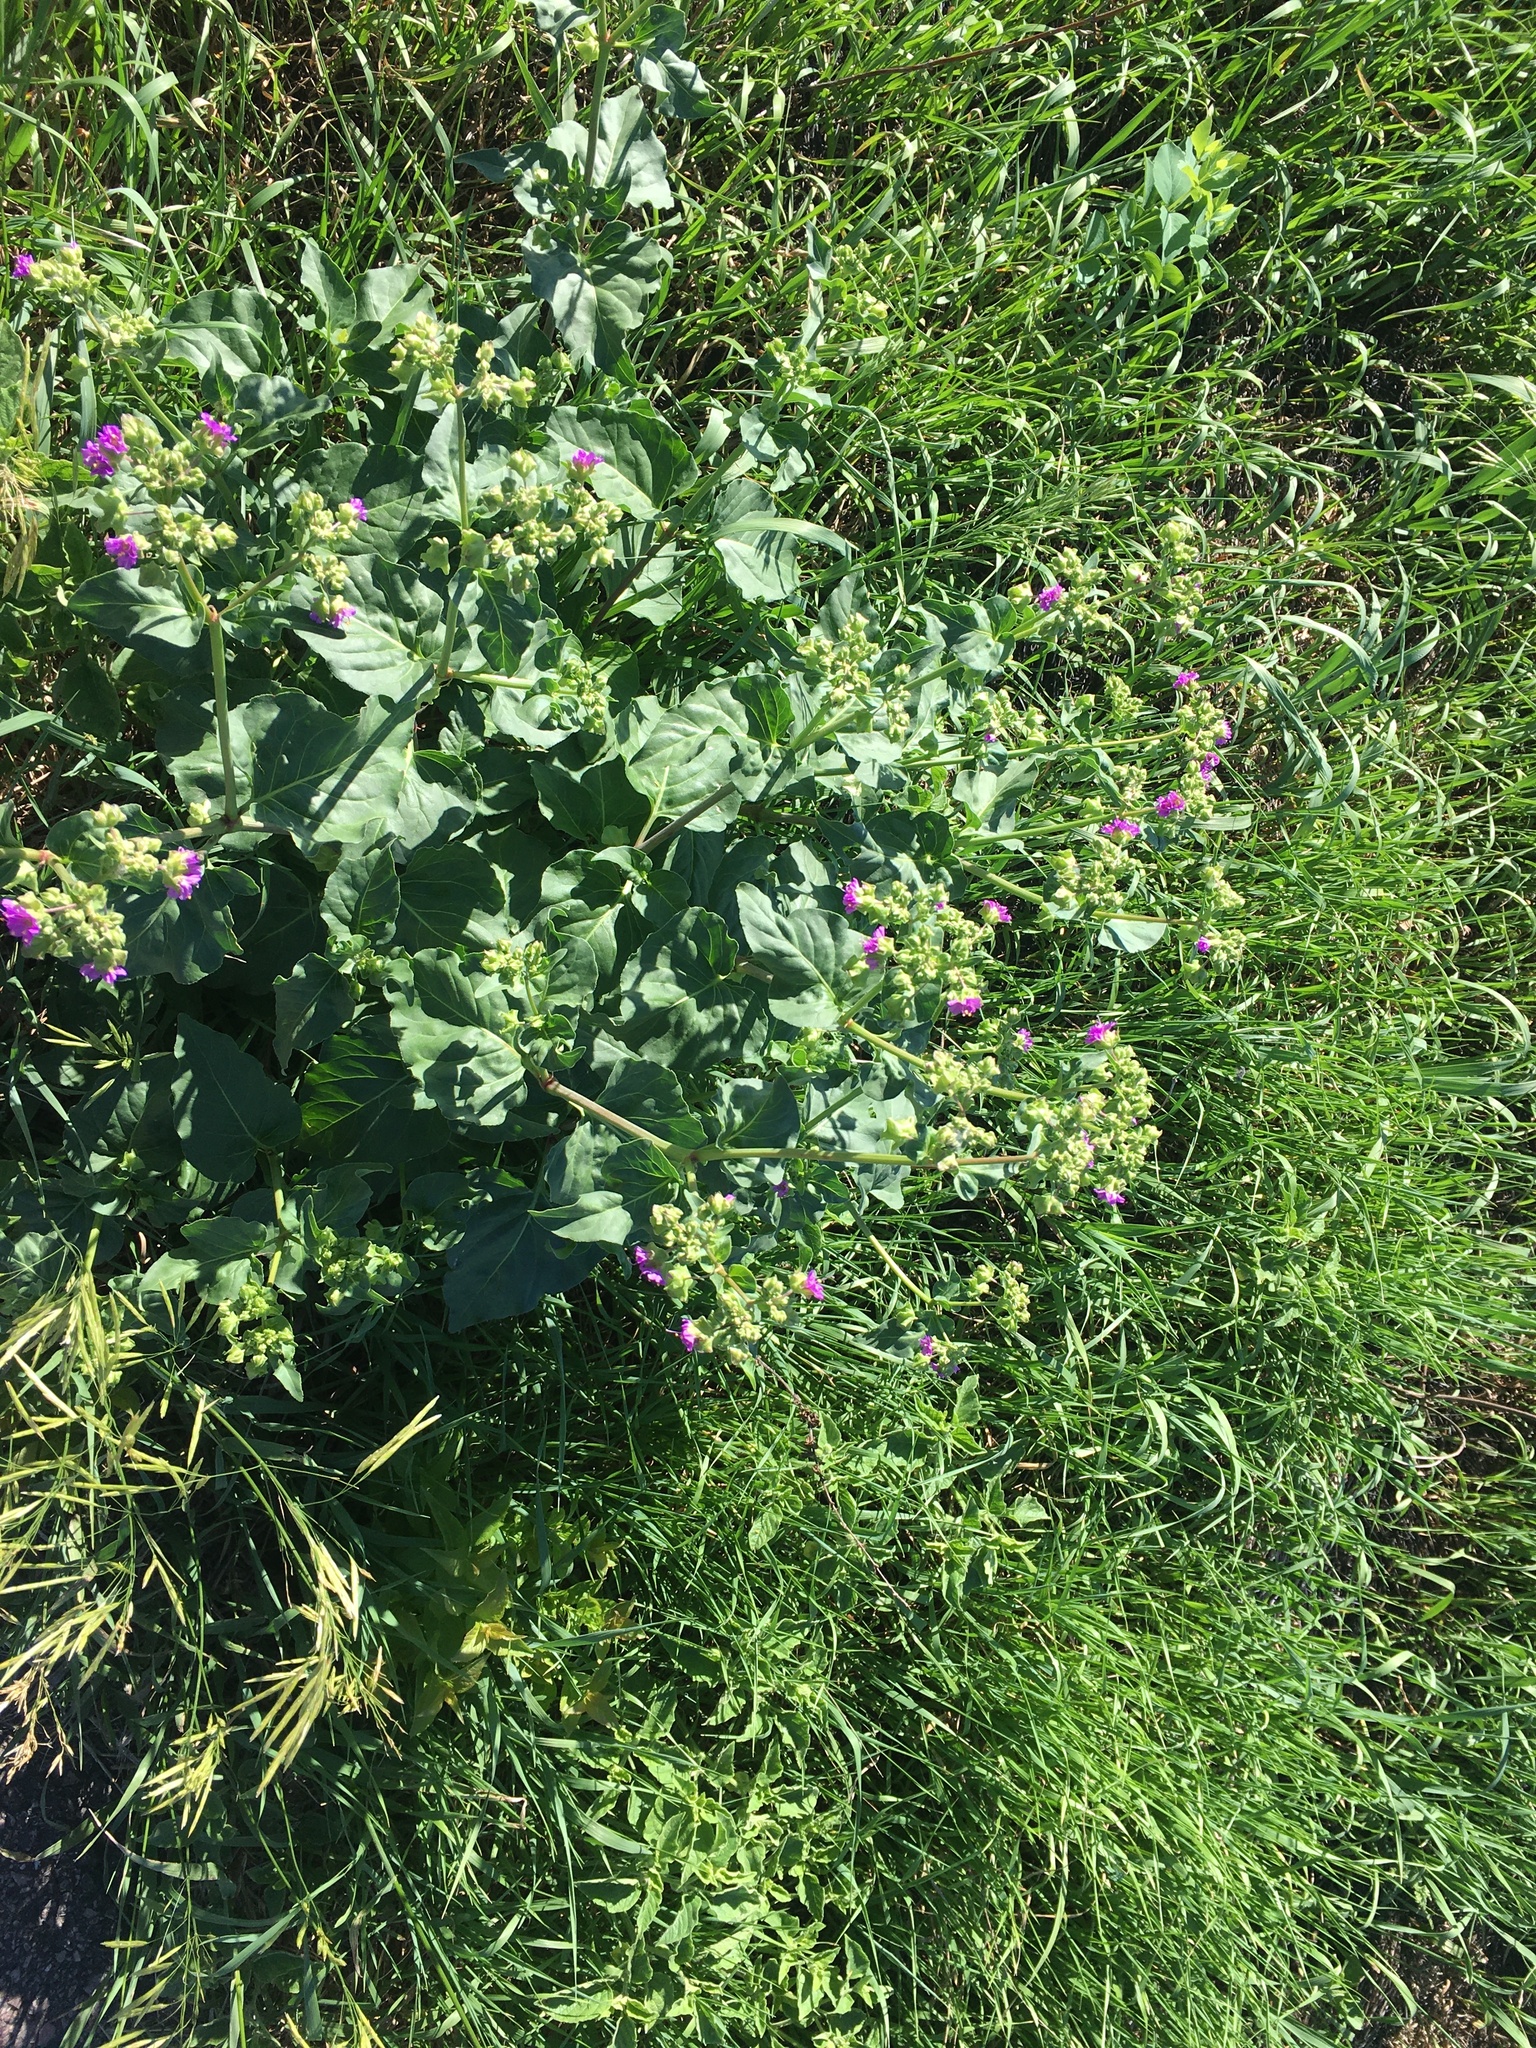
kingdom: Plantae
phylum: Tracheophyta
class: Magnoliopsida
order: Caryophyllales
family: Nyctaginaceae
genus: Mirabilis
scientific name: Mirabilis nyctaginea
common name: Umbrella wort
